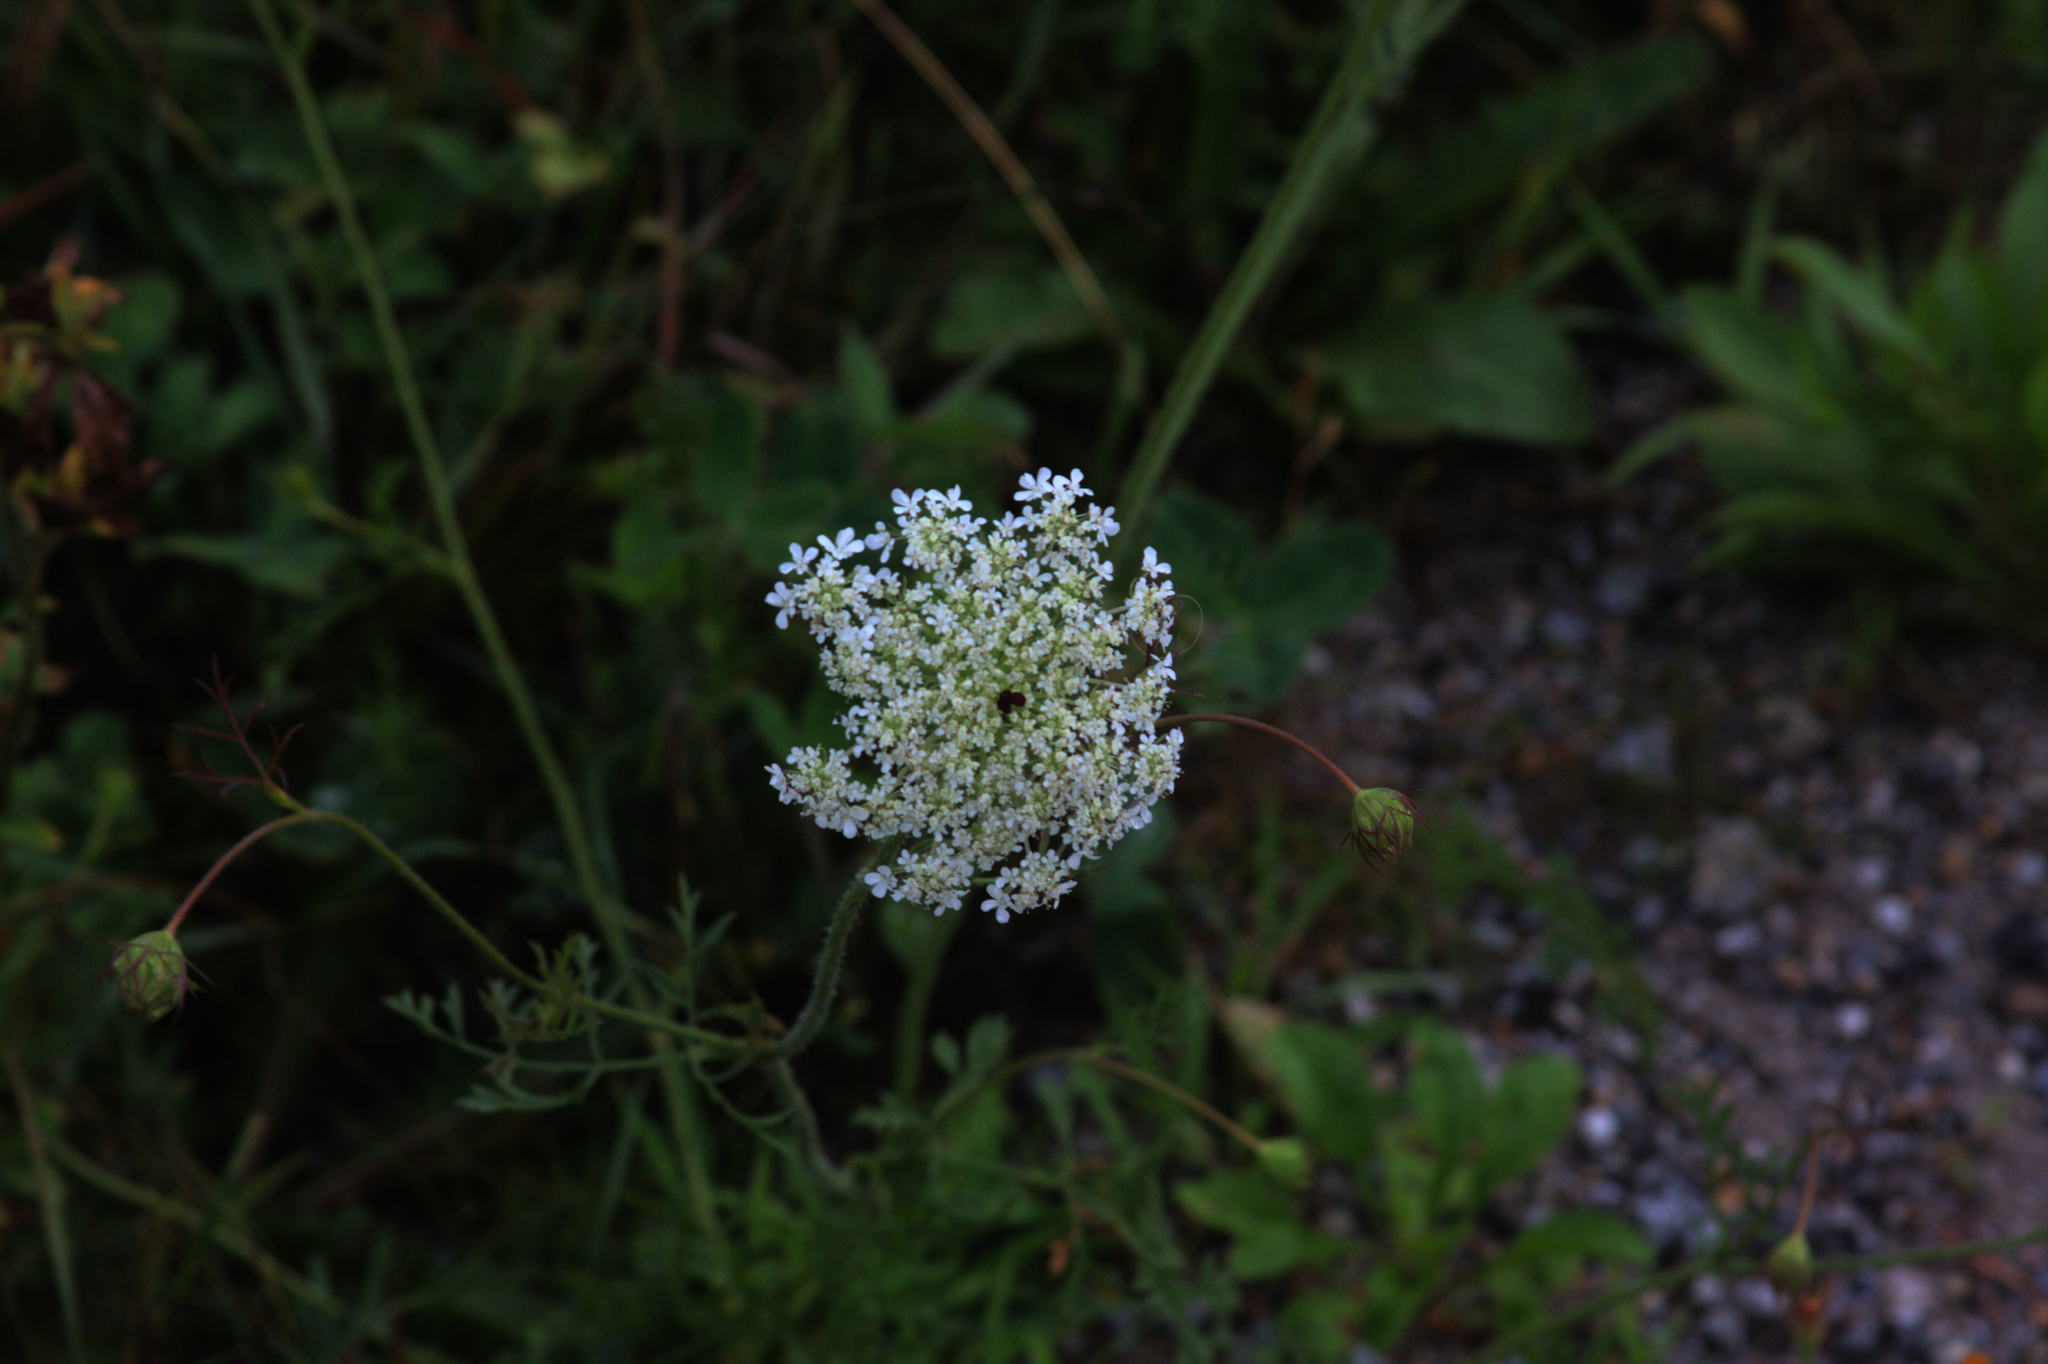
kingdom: Plantae
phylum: Tracheophyta
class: Magnoliopsida
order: Apiales
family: Apiaceae
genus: Daucus
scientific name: Daucus carota
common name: Wild carrot
